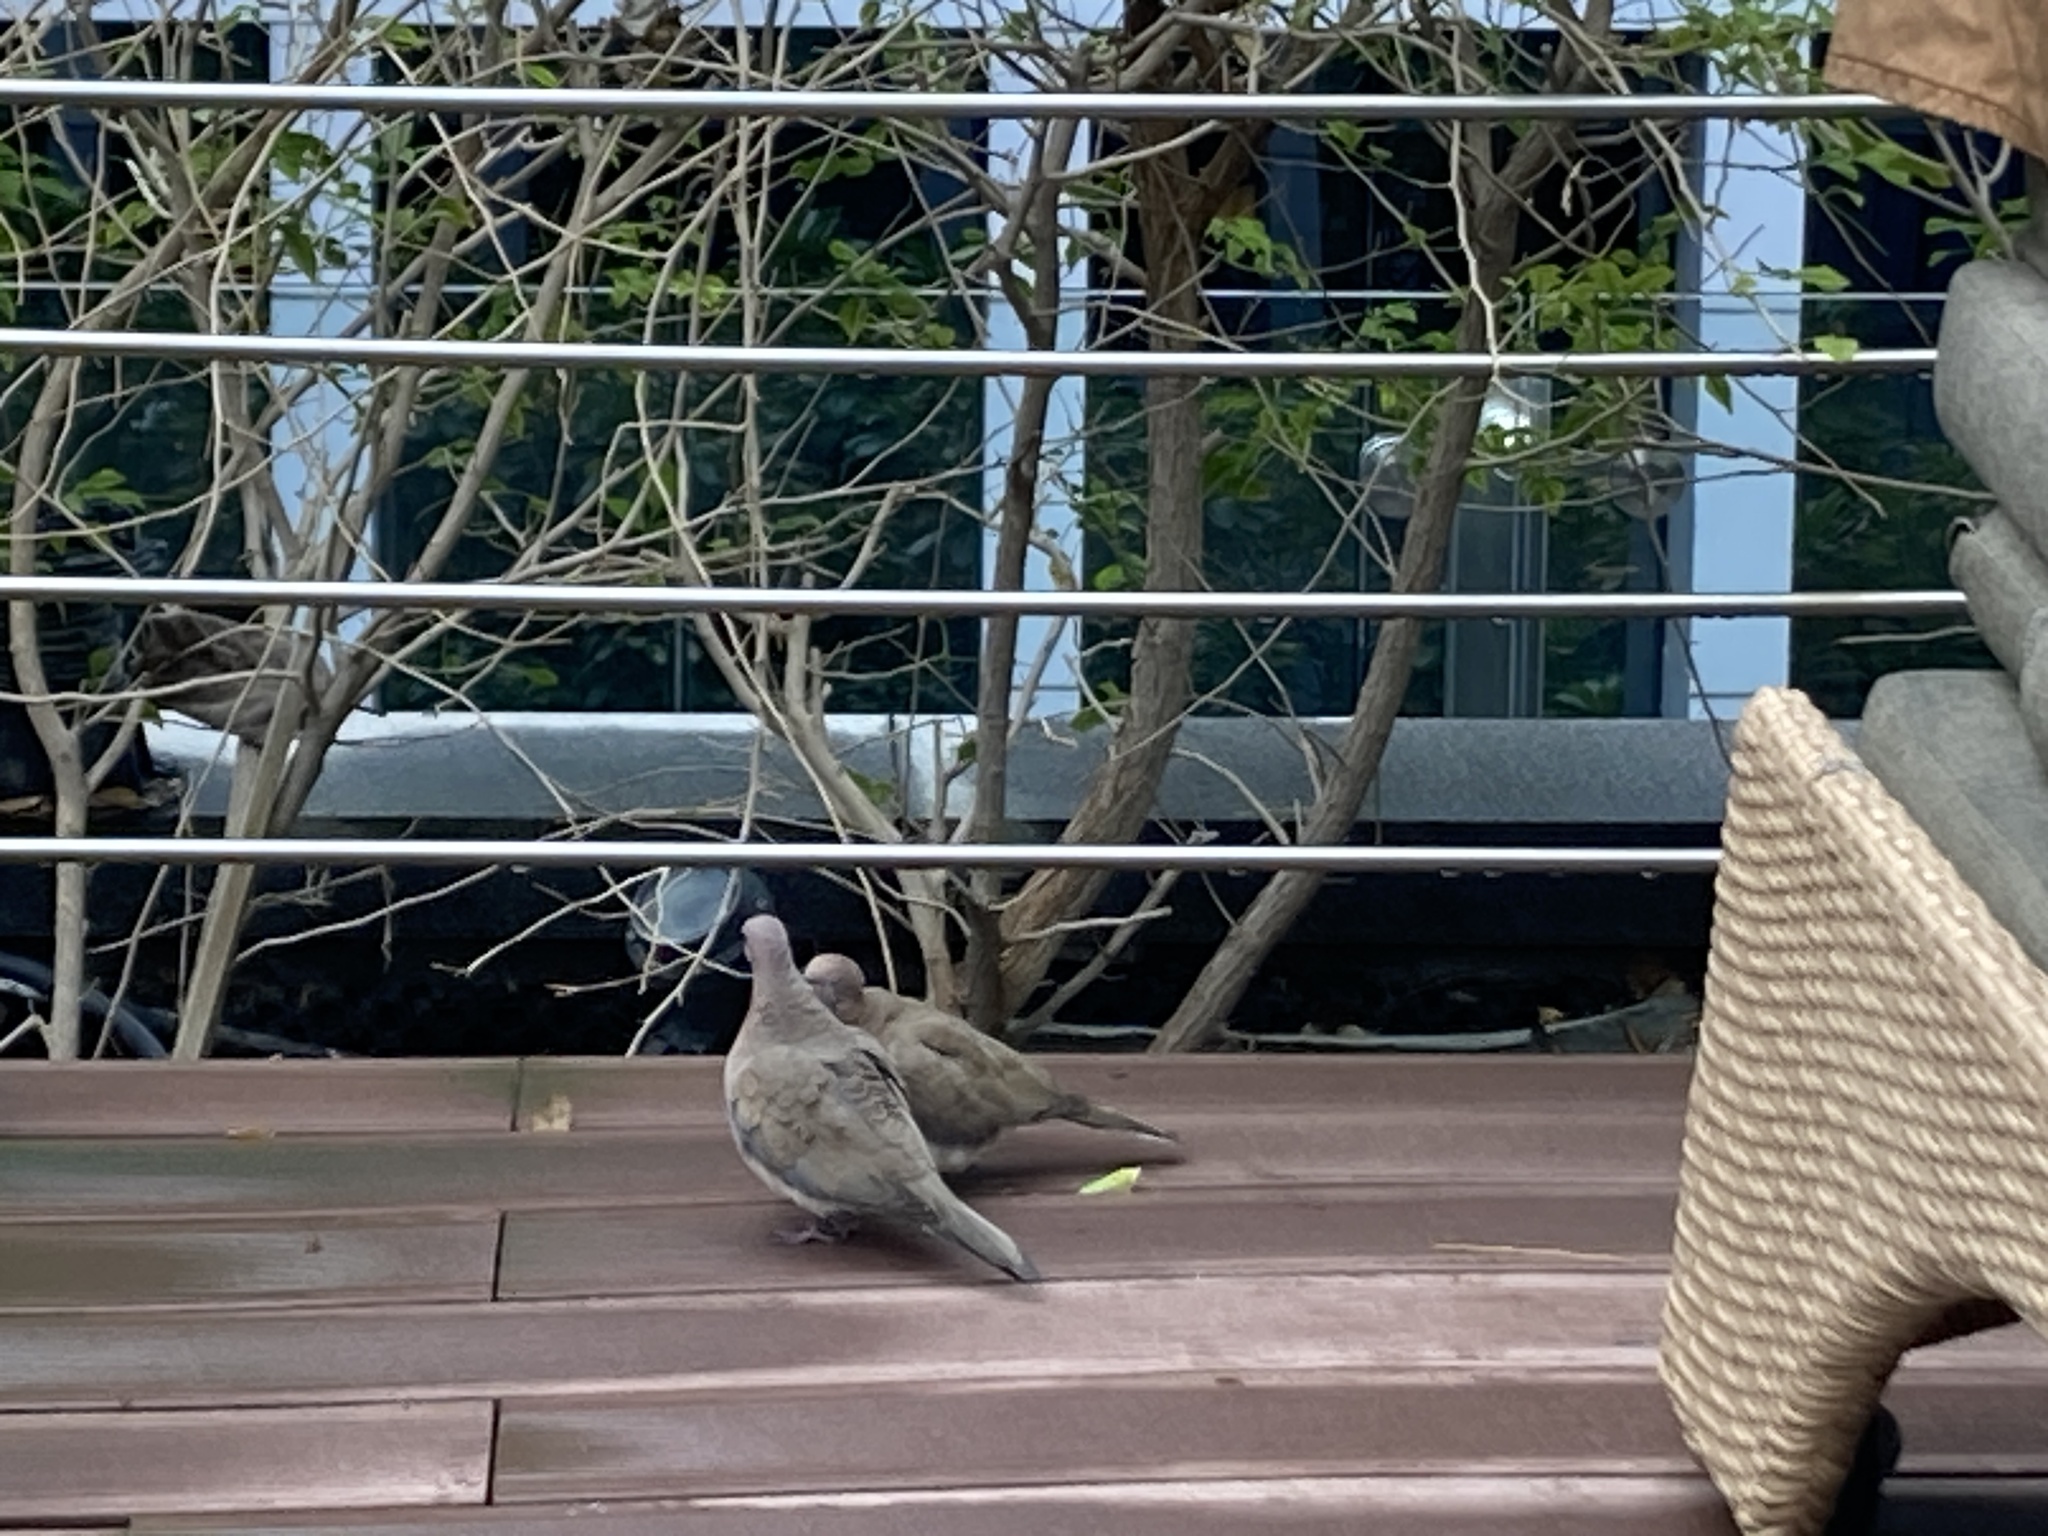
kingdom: Animalia
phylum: Chordata
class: Aves
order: Columbiformes
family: Columbidae
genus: Spilopelia
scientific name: Spilopelia senegalensis
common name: Laughing dove
